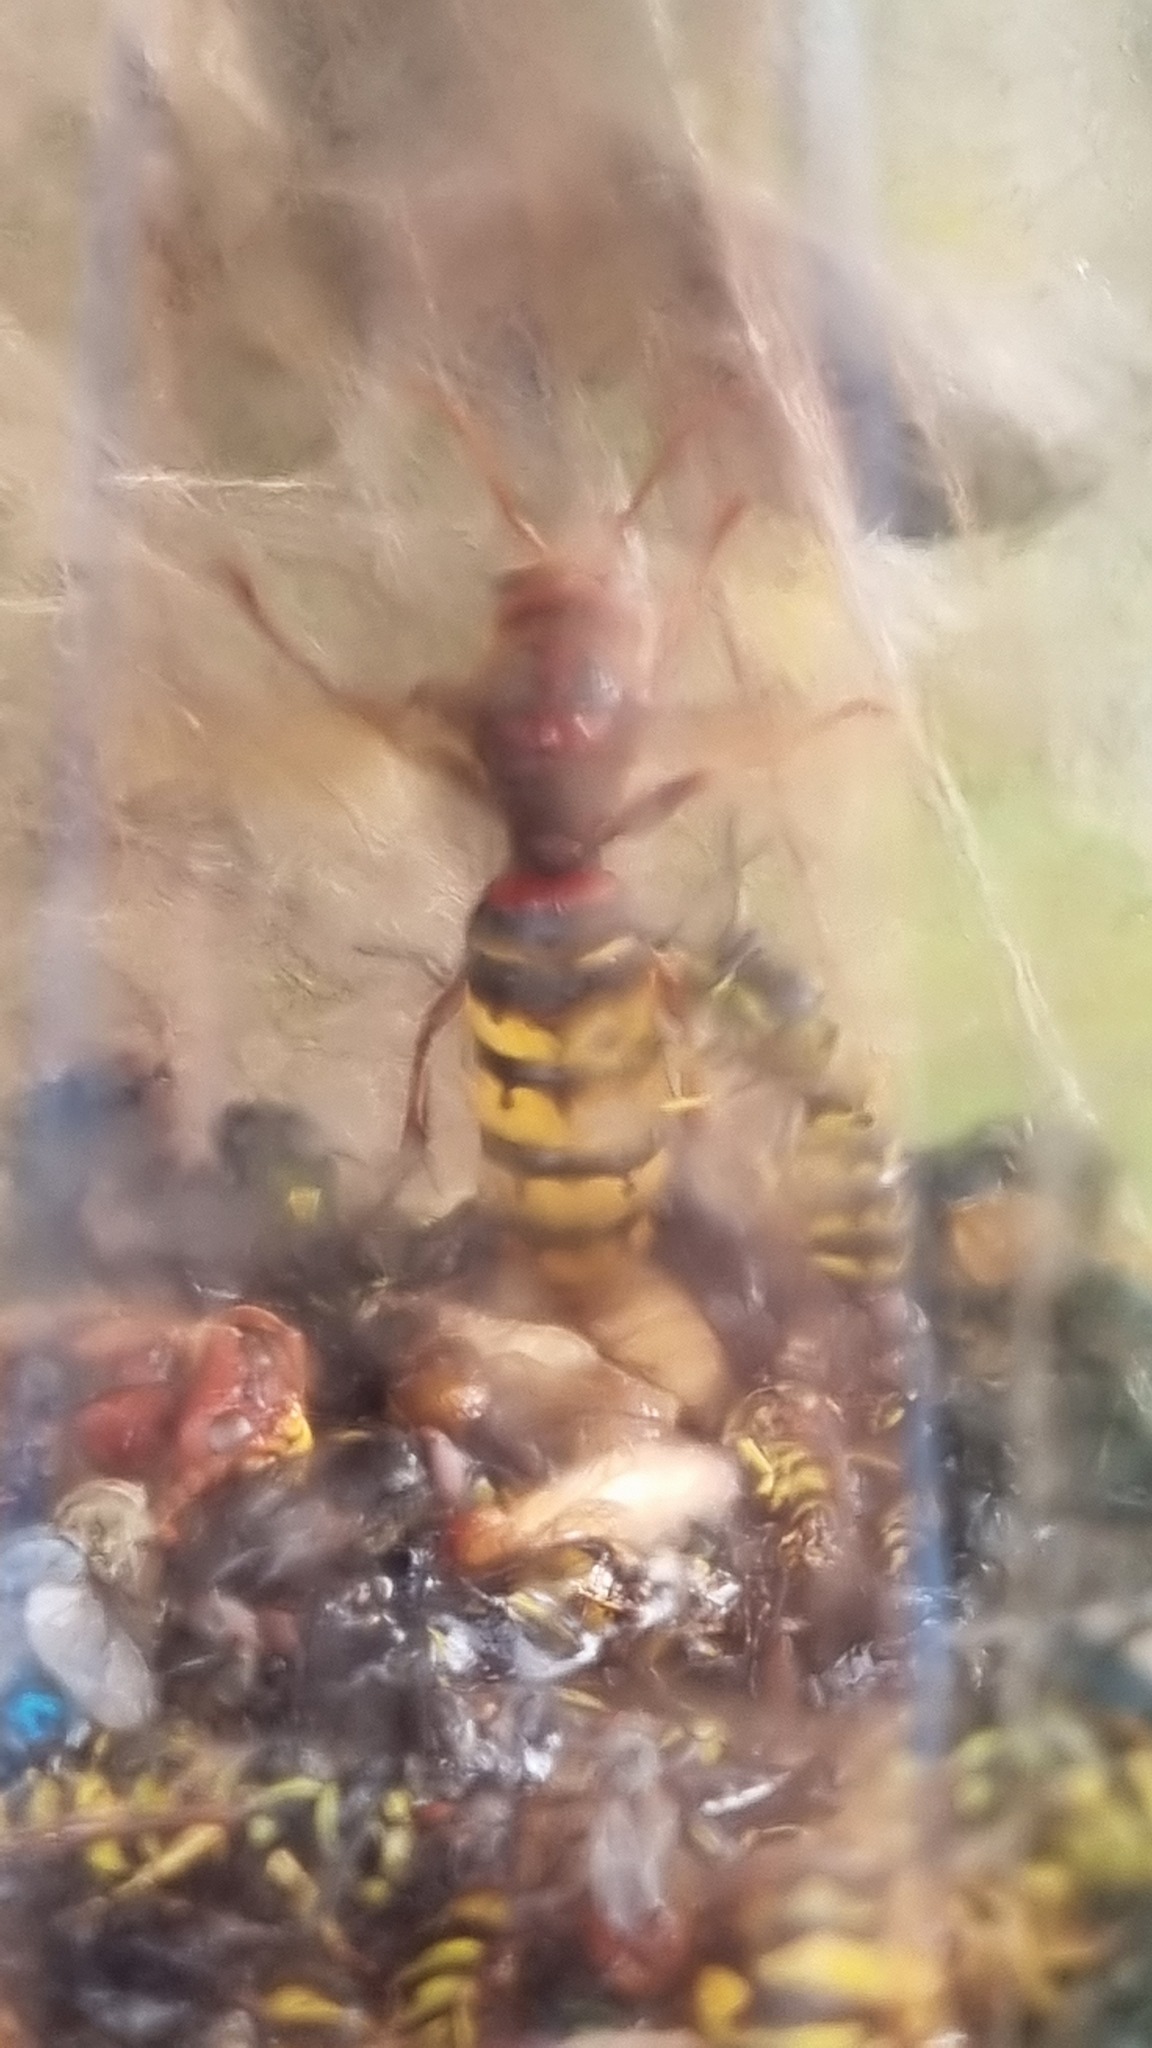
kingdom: Animalia
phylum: Arthropoda
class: Insecta
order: Hymenoptera
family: Vespidae
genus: Vespa
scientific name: Vespa crabro
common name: Hornet
